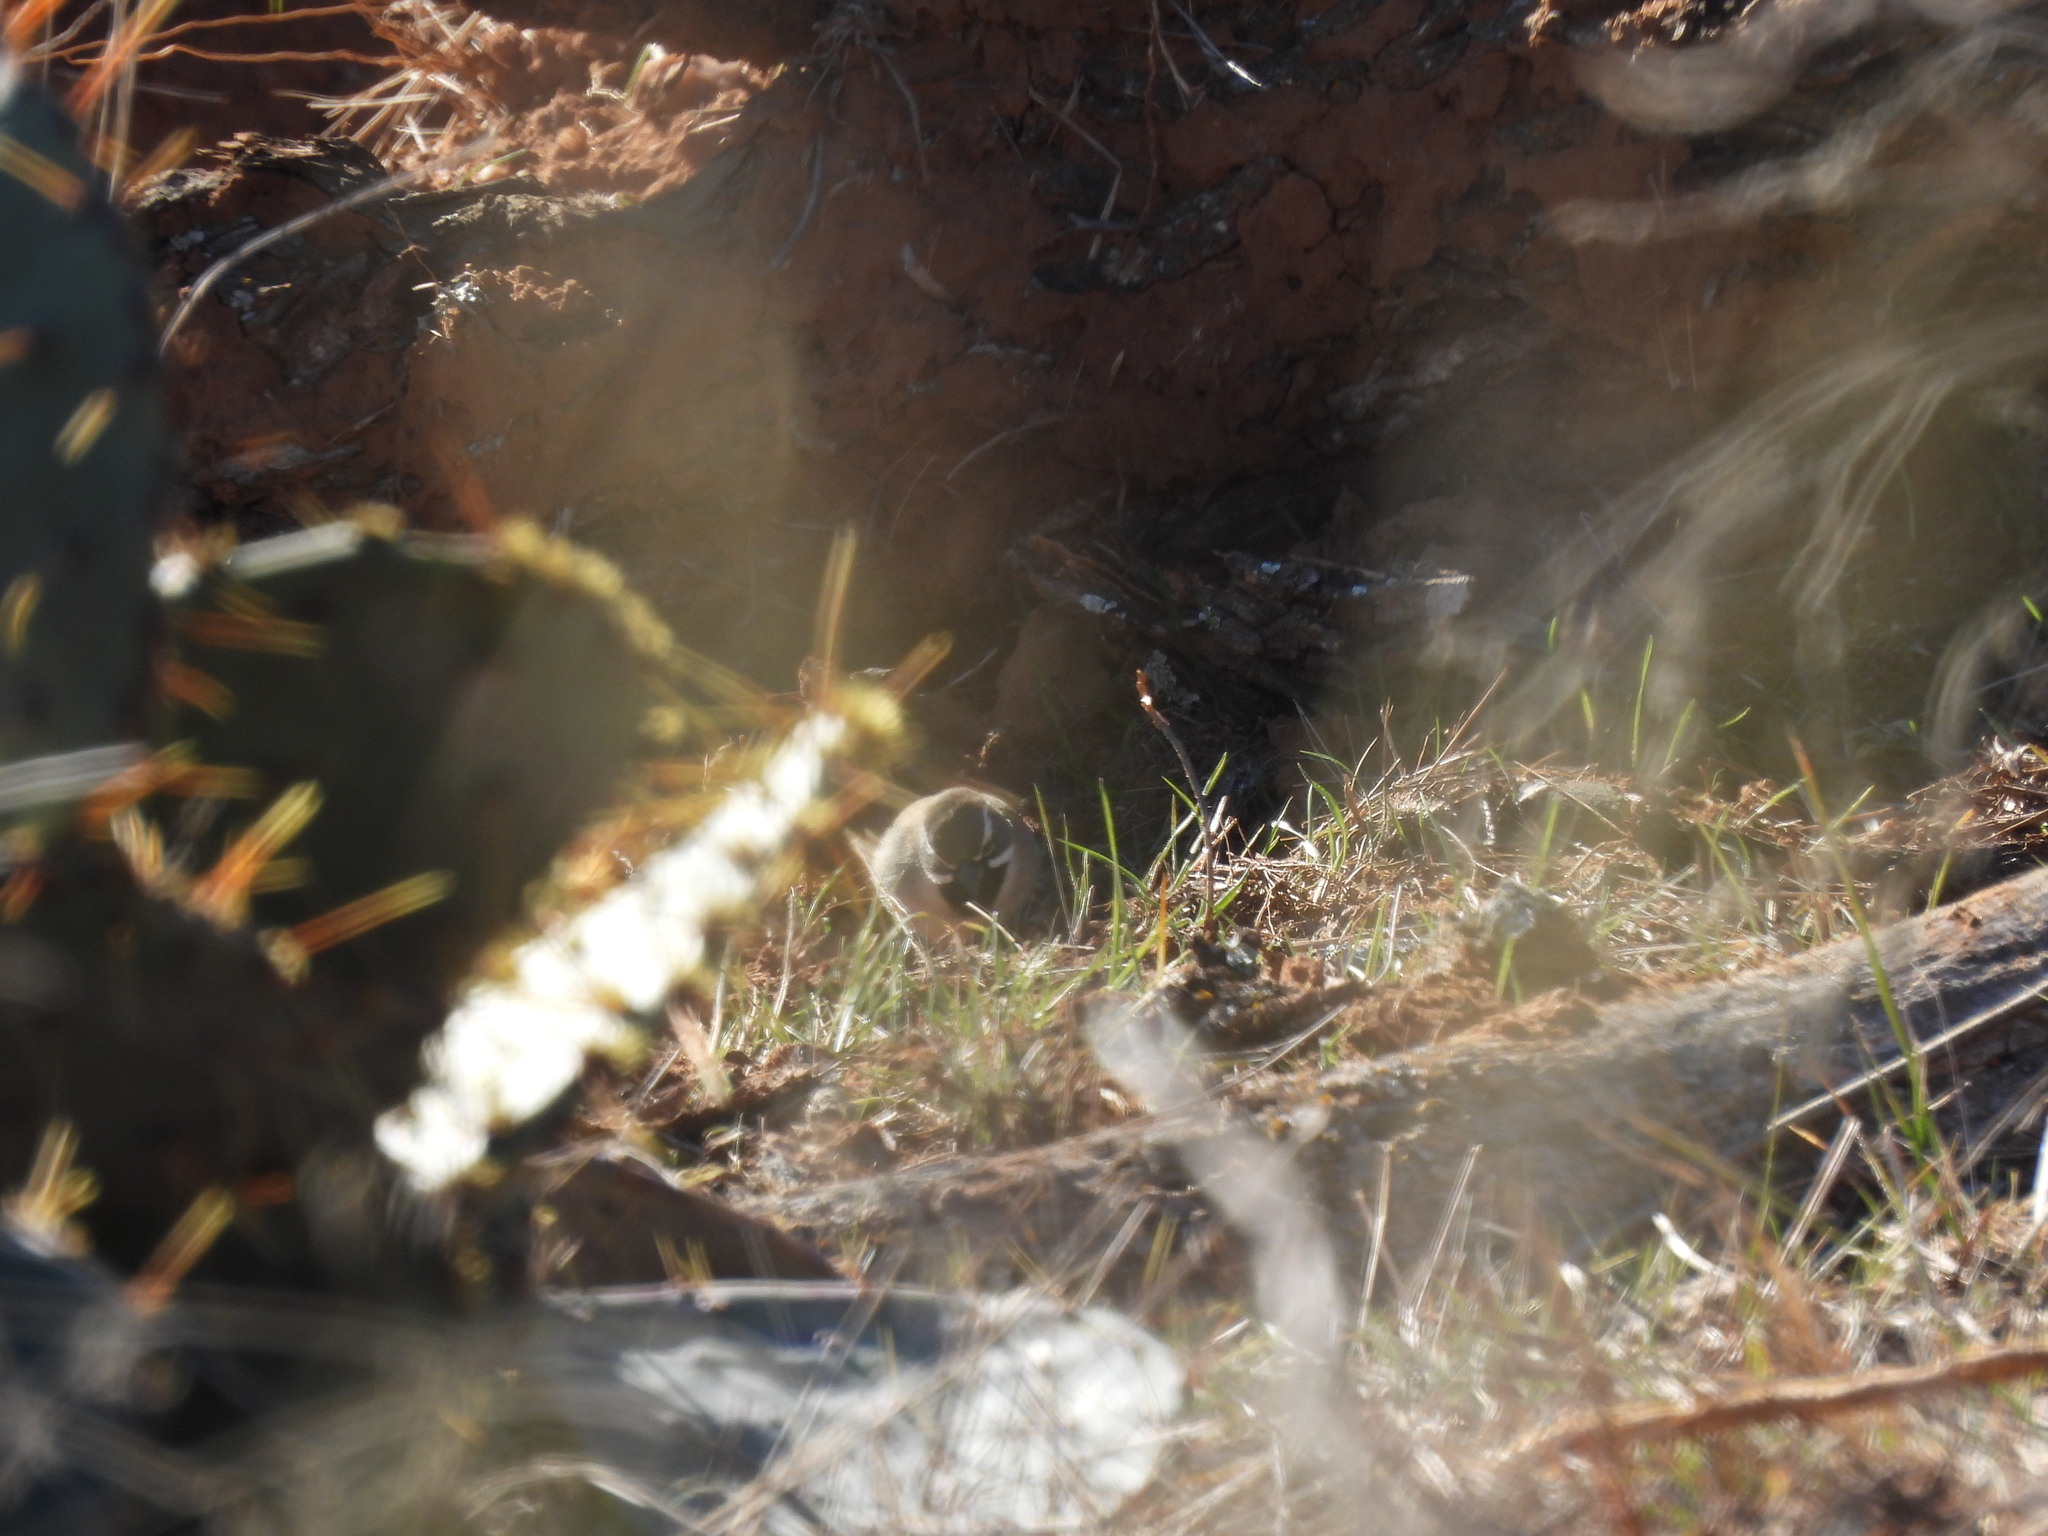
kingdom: Animalia
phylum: Chordata
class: Aves
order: Passeriformes
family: Passerellidae
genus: Amphispiza
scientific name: Amphispiza bilineata
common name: Black-throated sparrow
